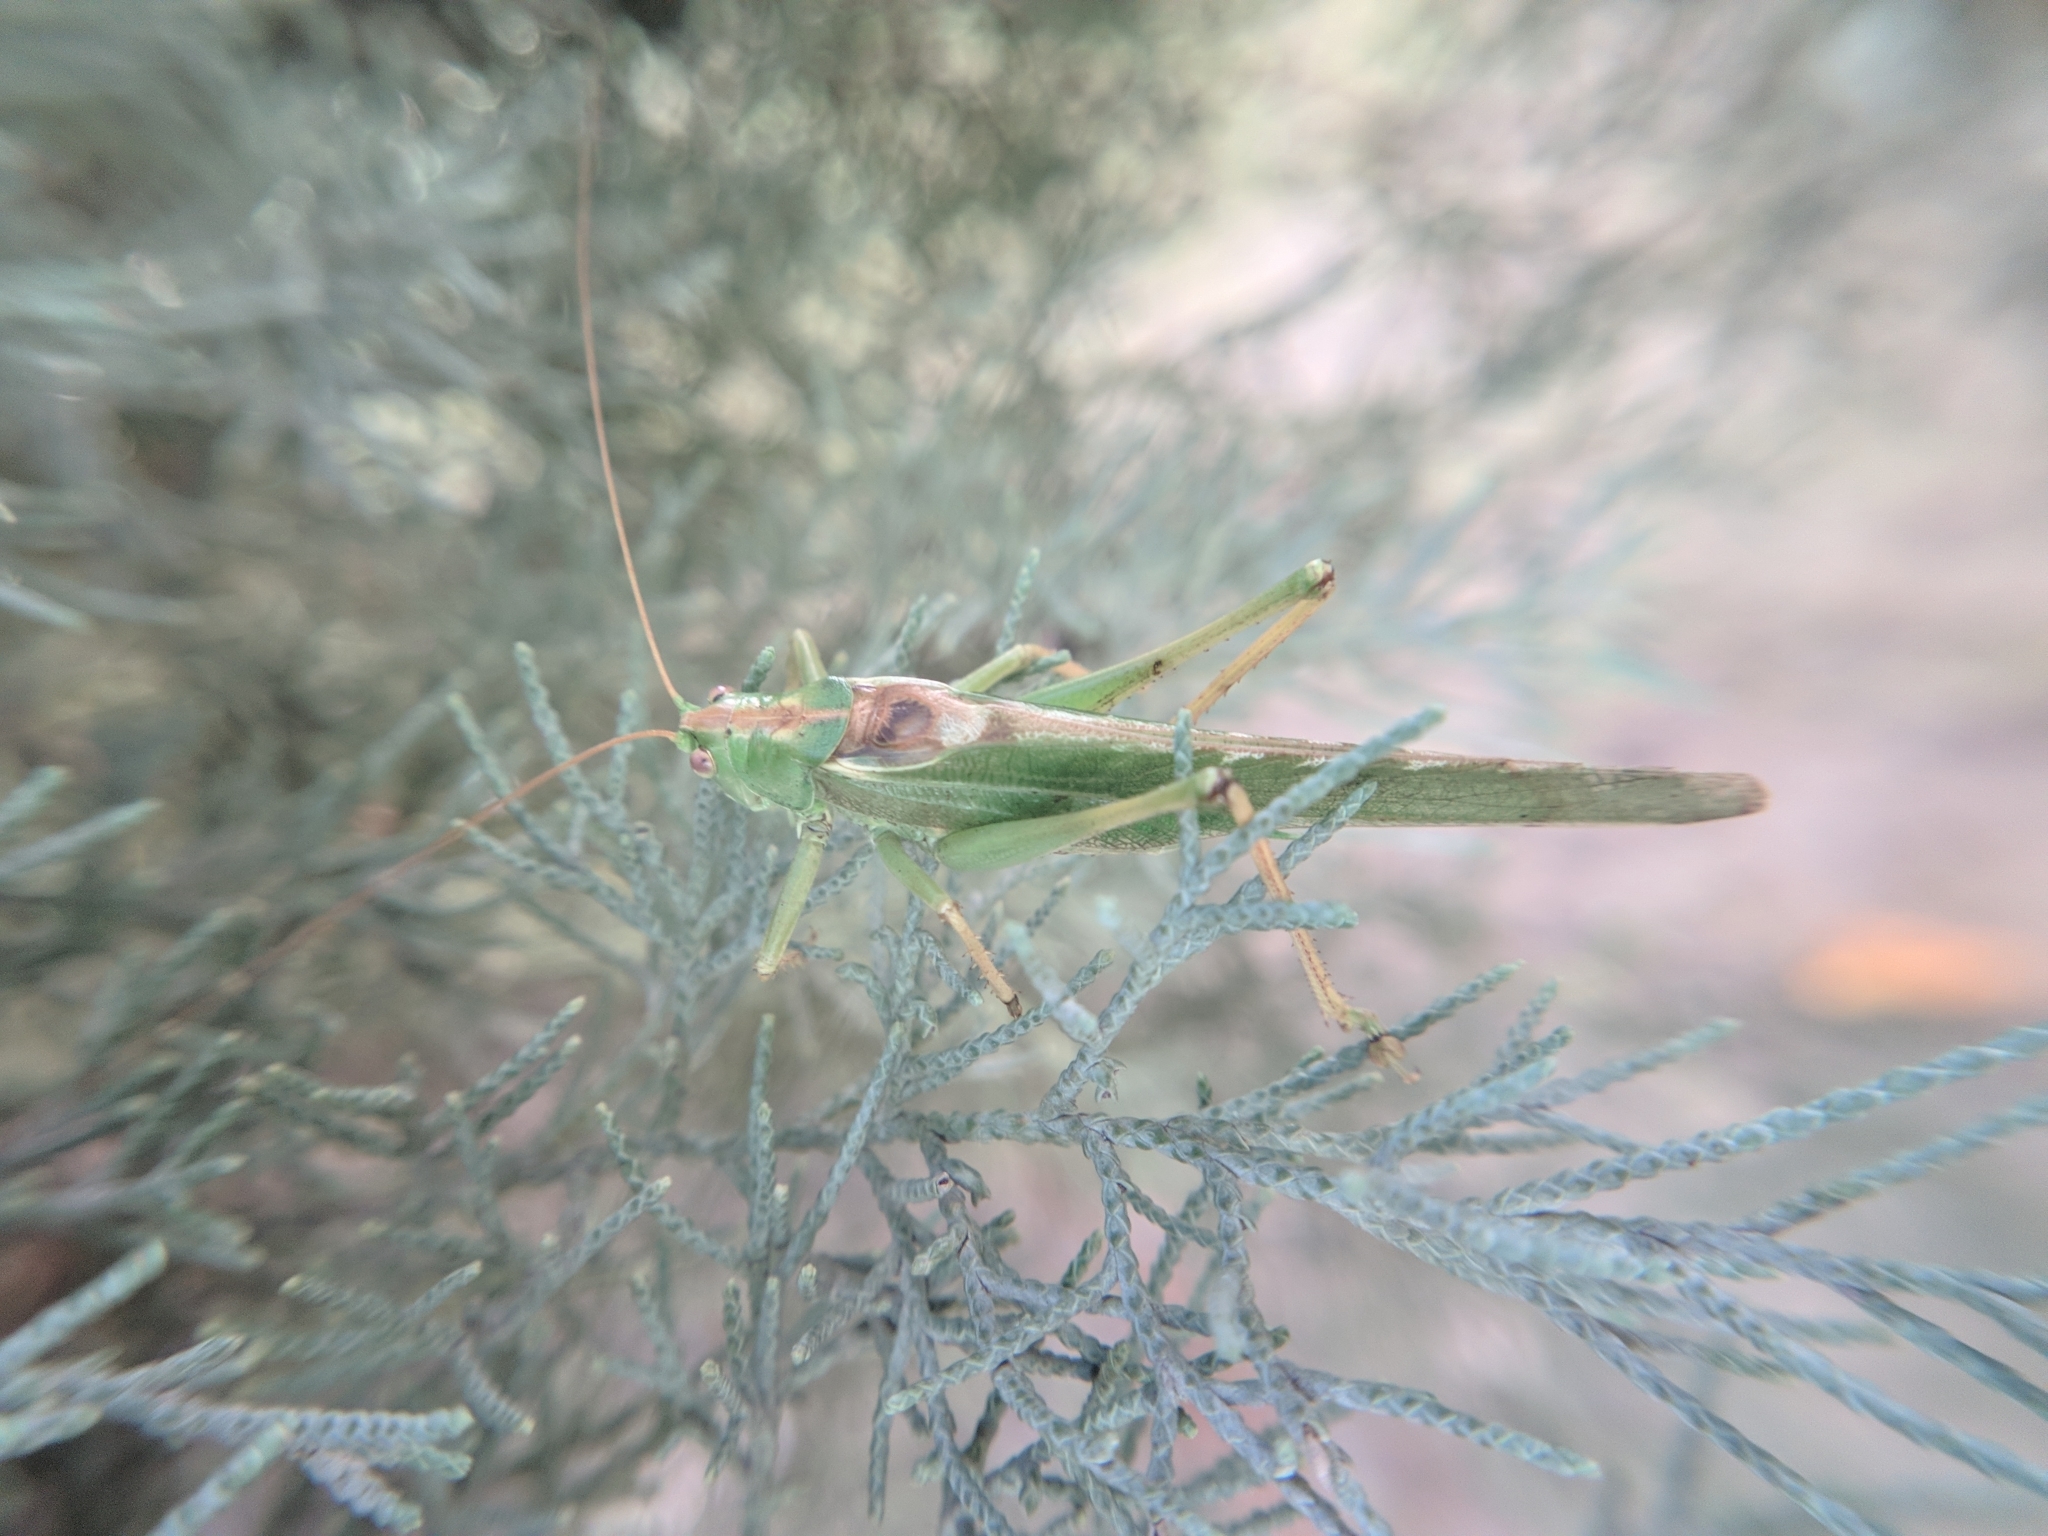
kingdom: Animalia
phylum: Arthropoda
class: Insecta
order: Orthoptera
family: Tettigoniidae
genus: Tettigonia
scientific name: Tettigonia viridissima
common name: Great green bush-cricket
